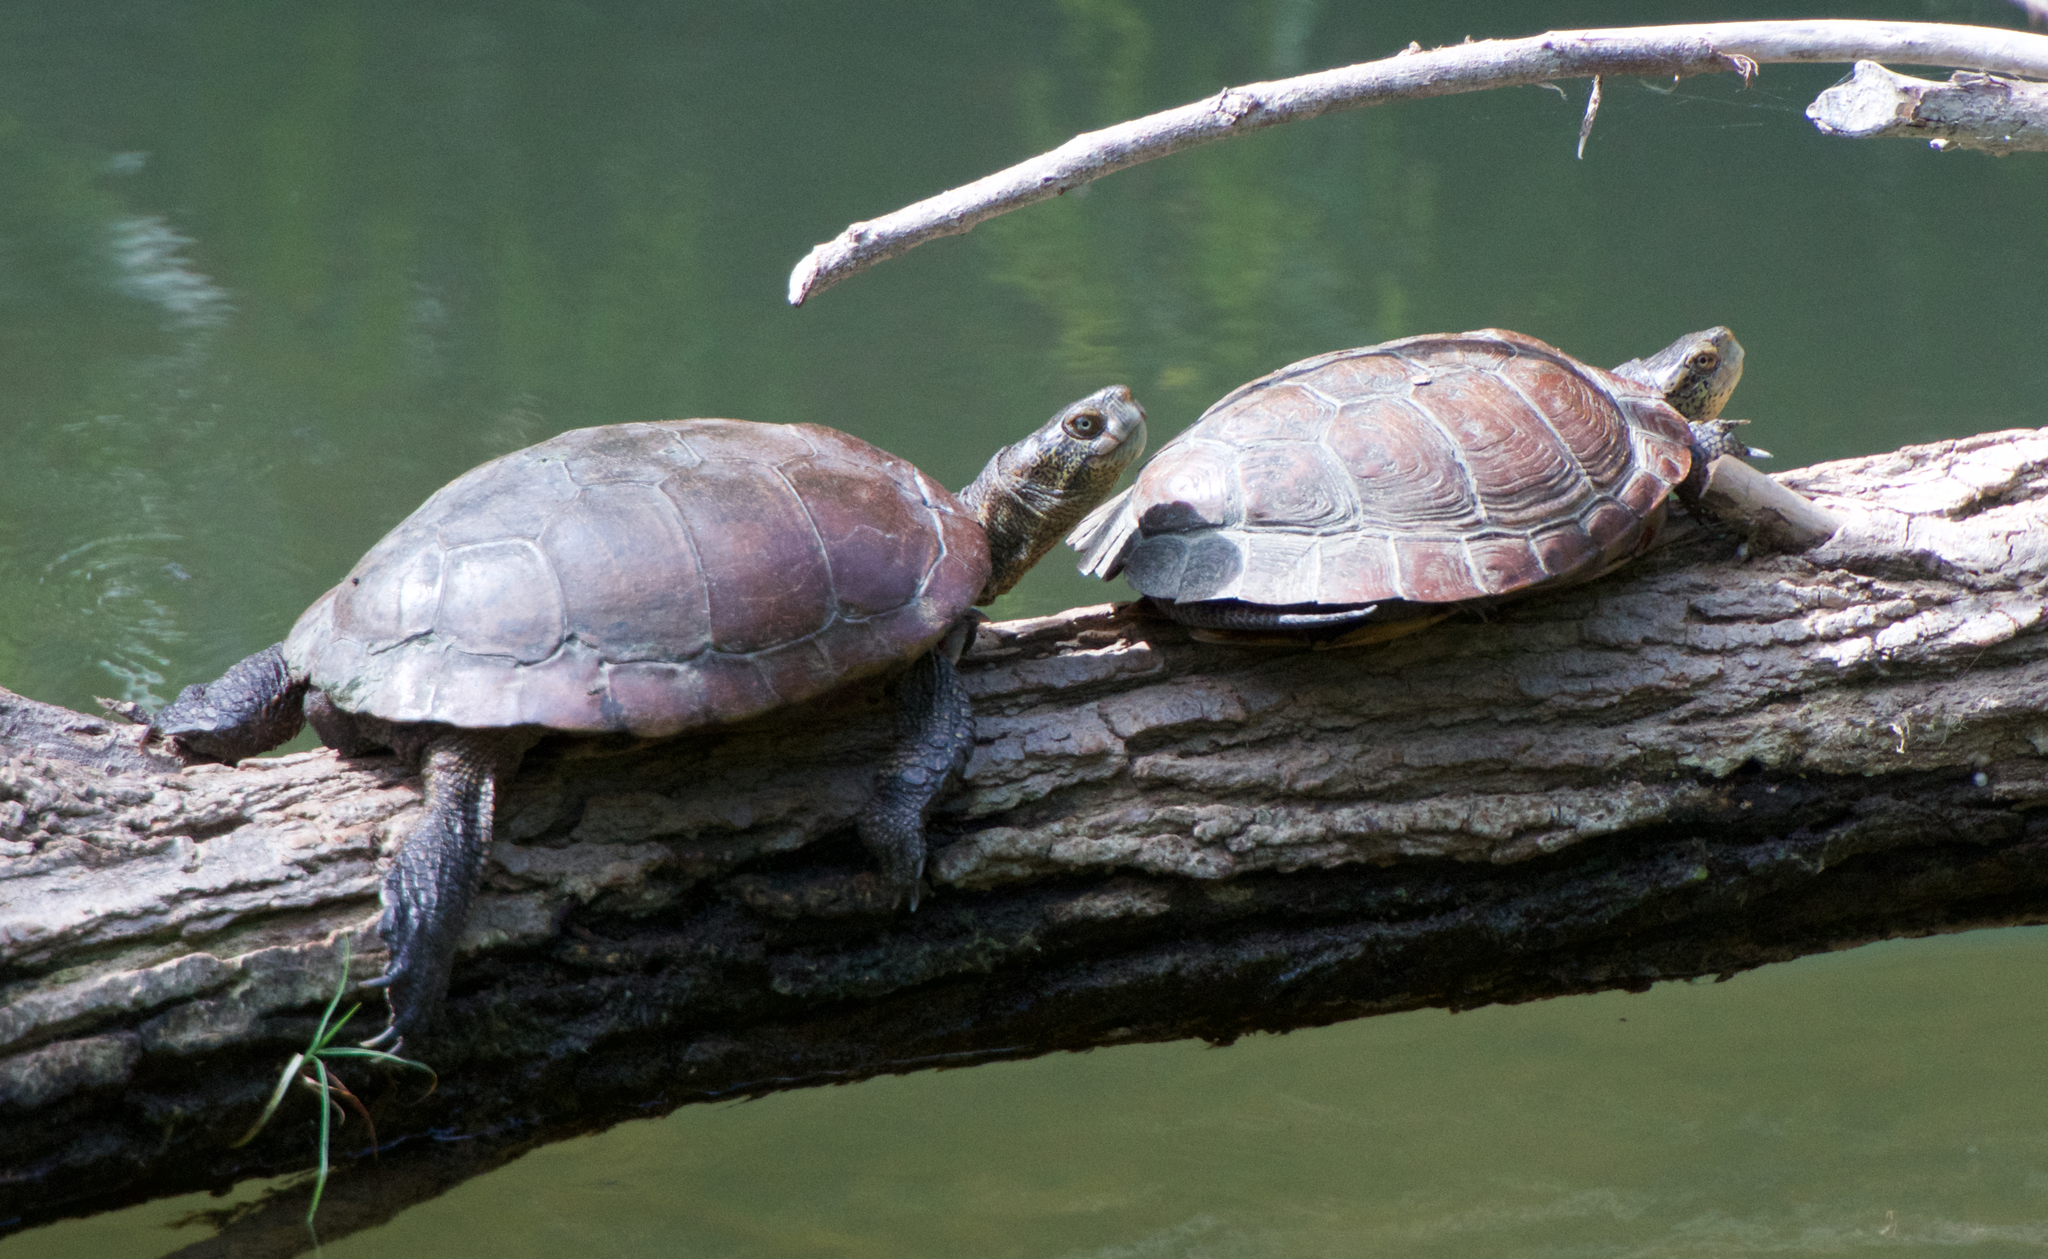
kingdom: Animalia
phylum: Chordata
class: Testudines
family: Emydidae
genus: Actinemys
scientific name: Actinemys marmorata
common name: Western pond turtle
